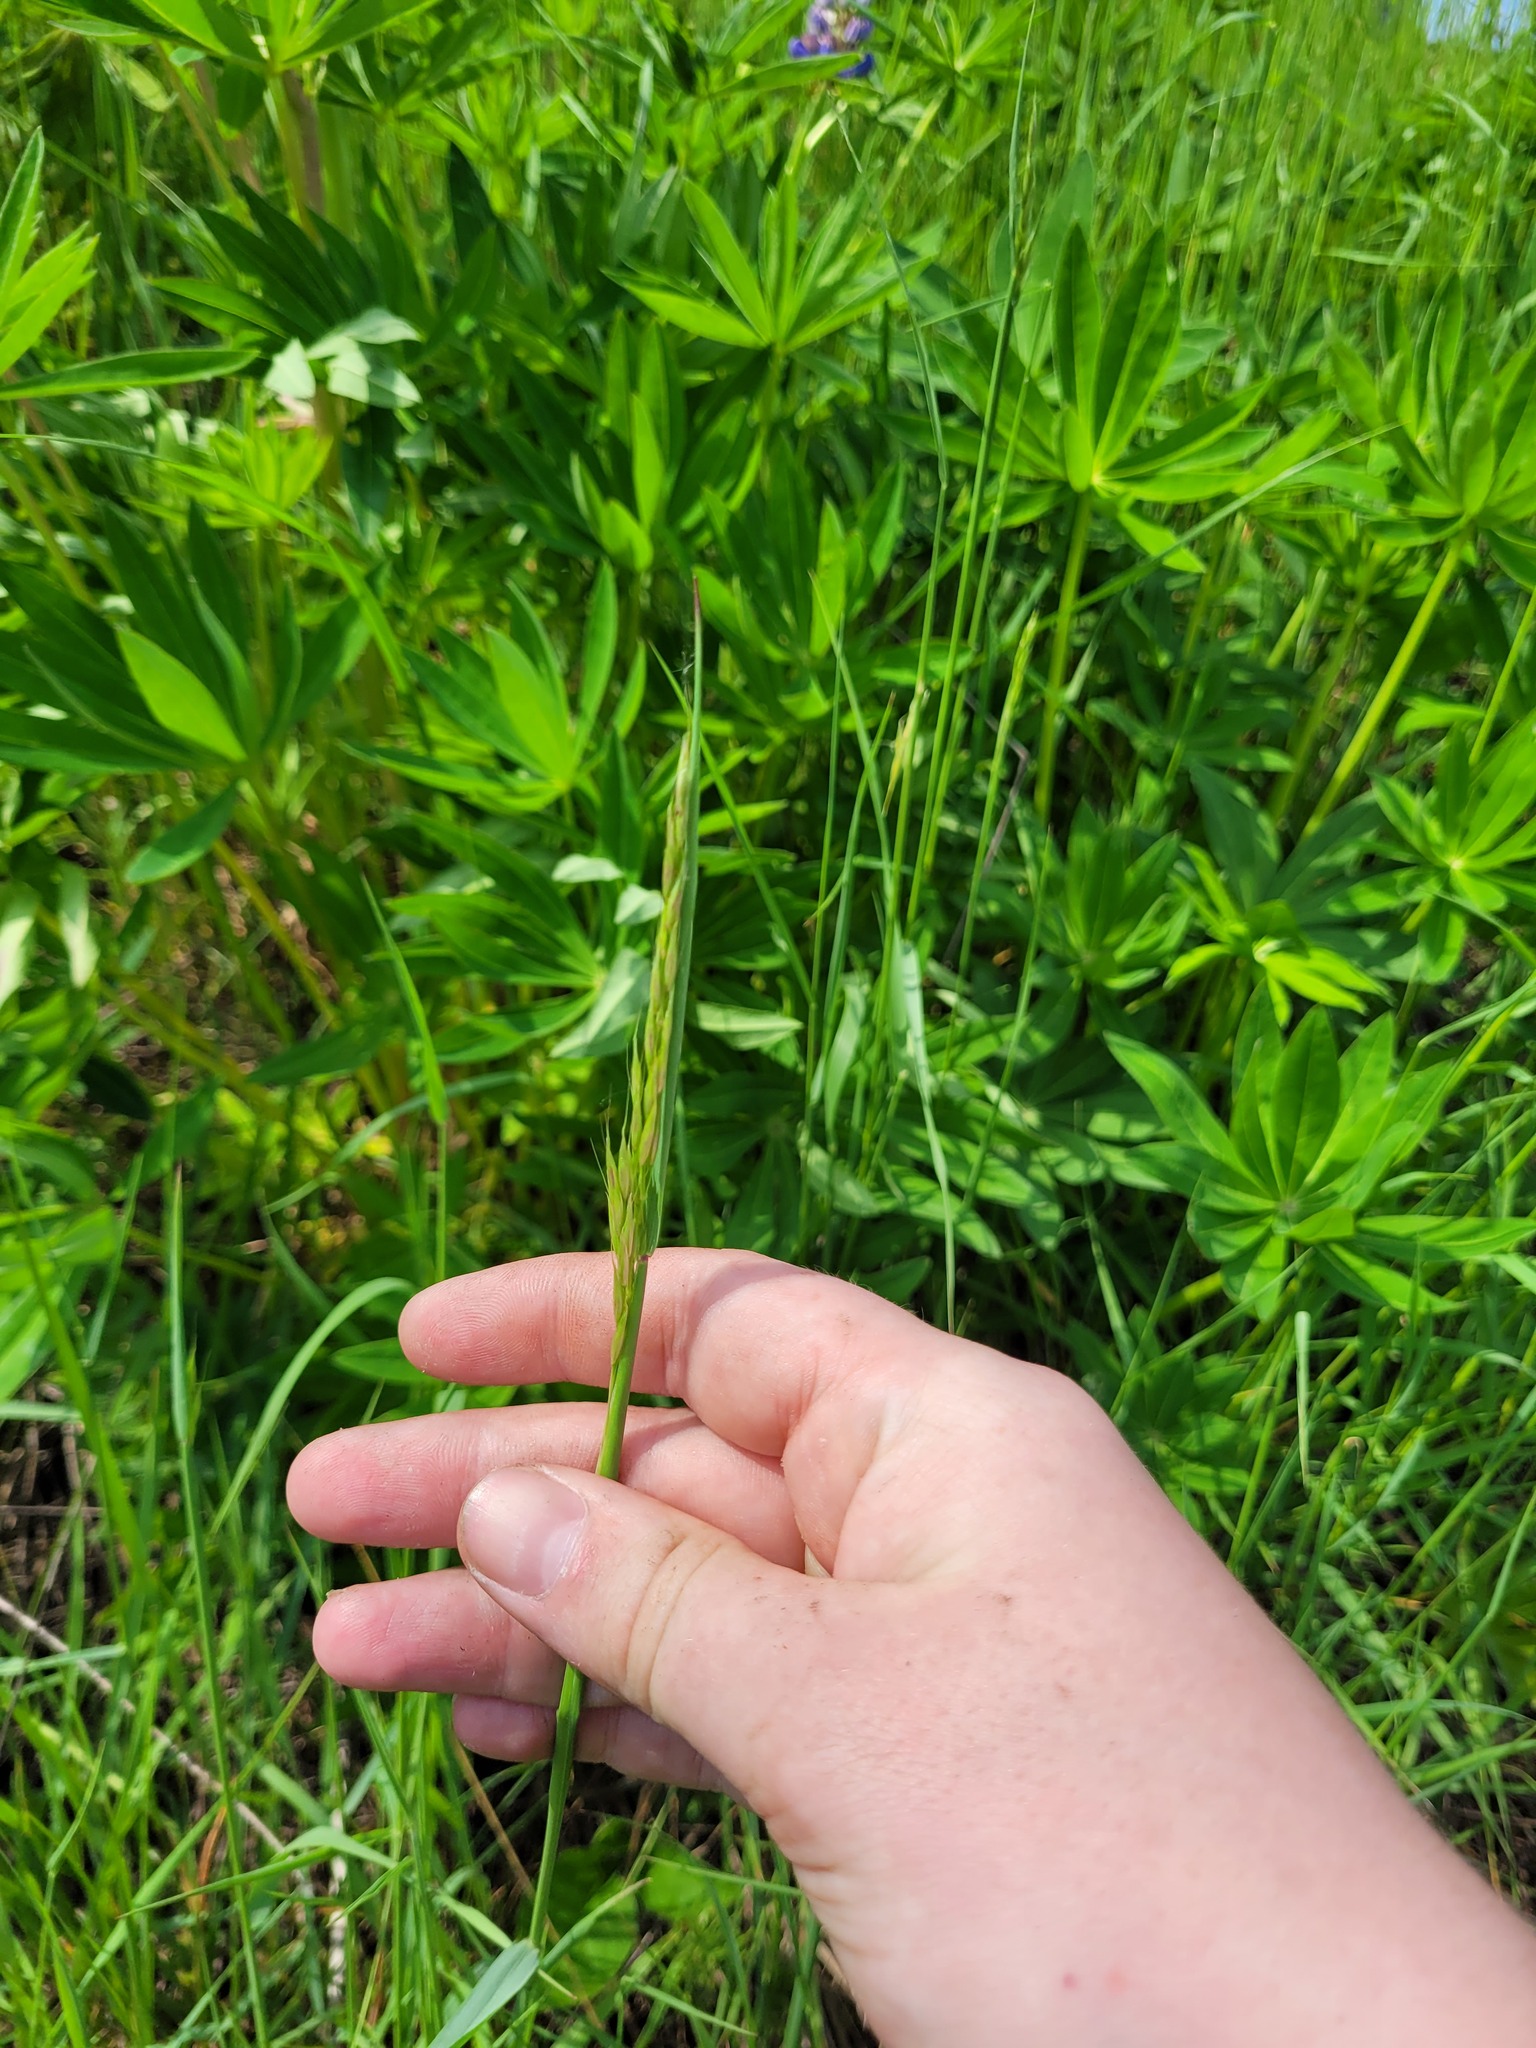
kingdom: Plantae
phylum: Tracheophyta
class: Liliopsida
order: Poales
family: Poaceae
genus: Arrhenatherum
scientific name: Arrhenatherum elatius
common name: Tall oatgrass
